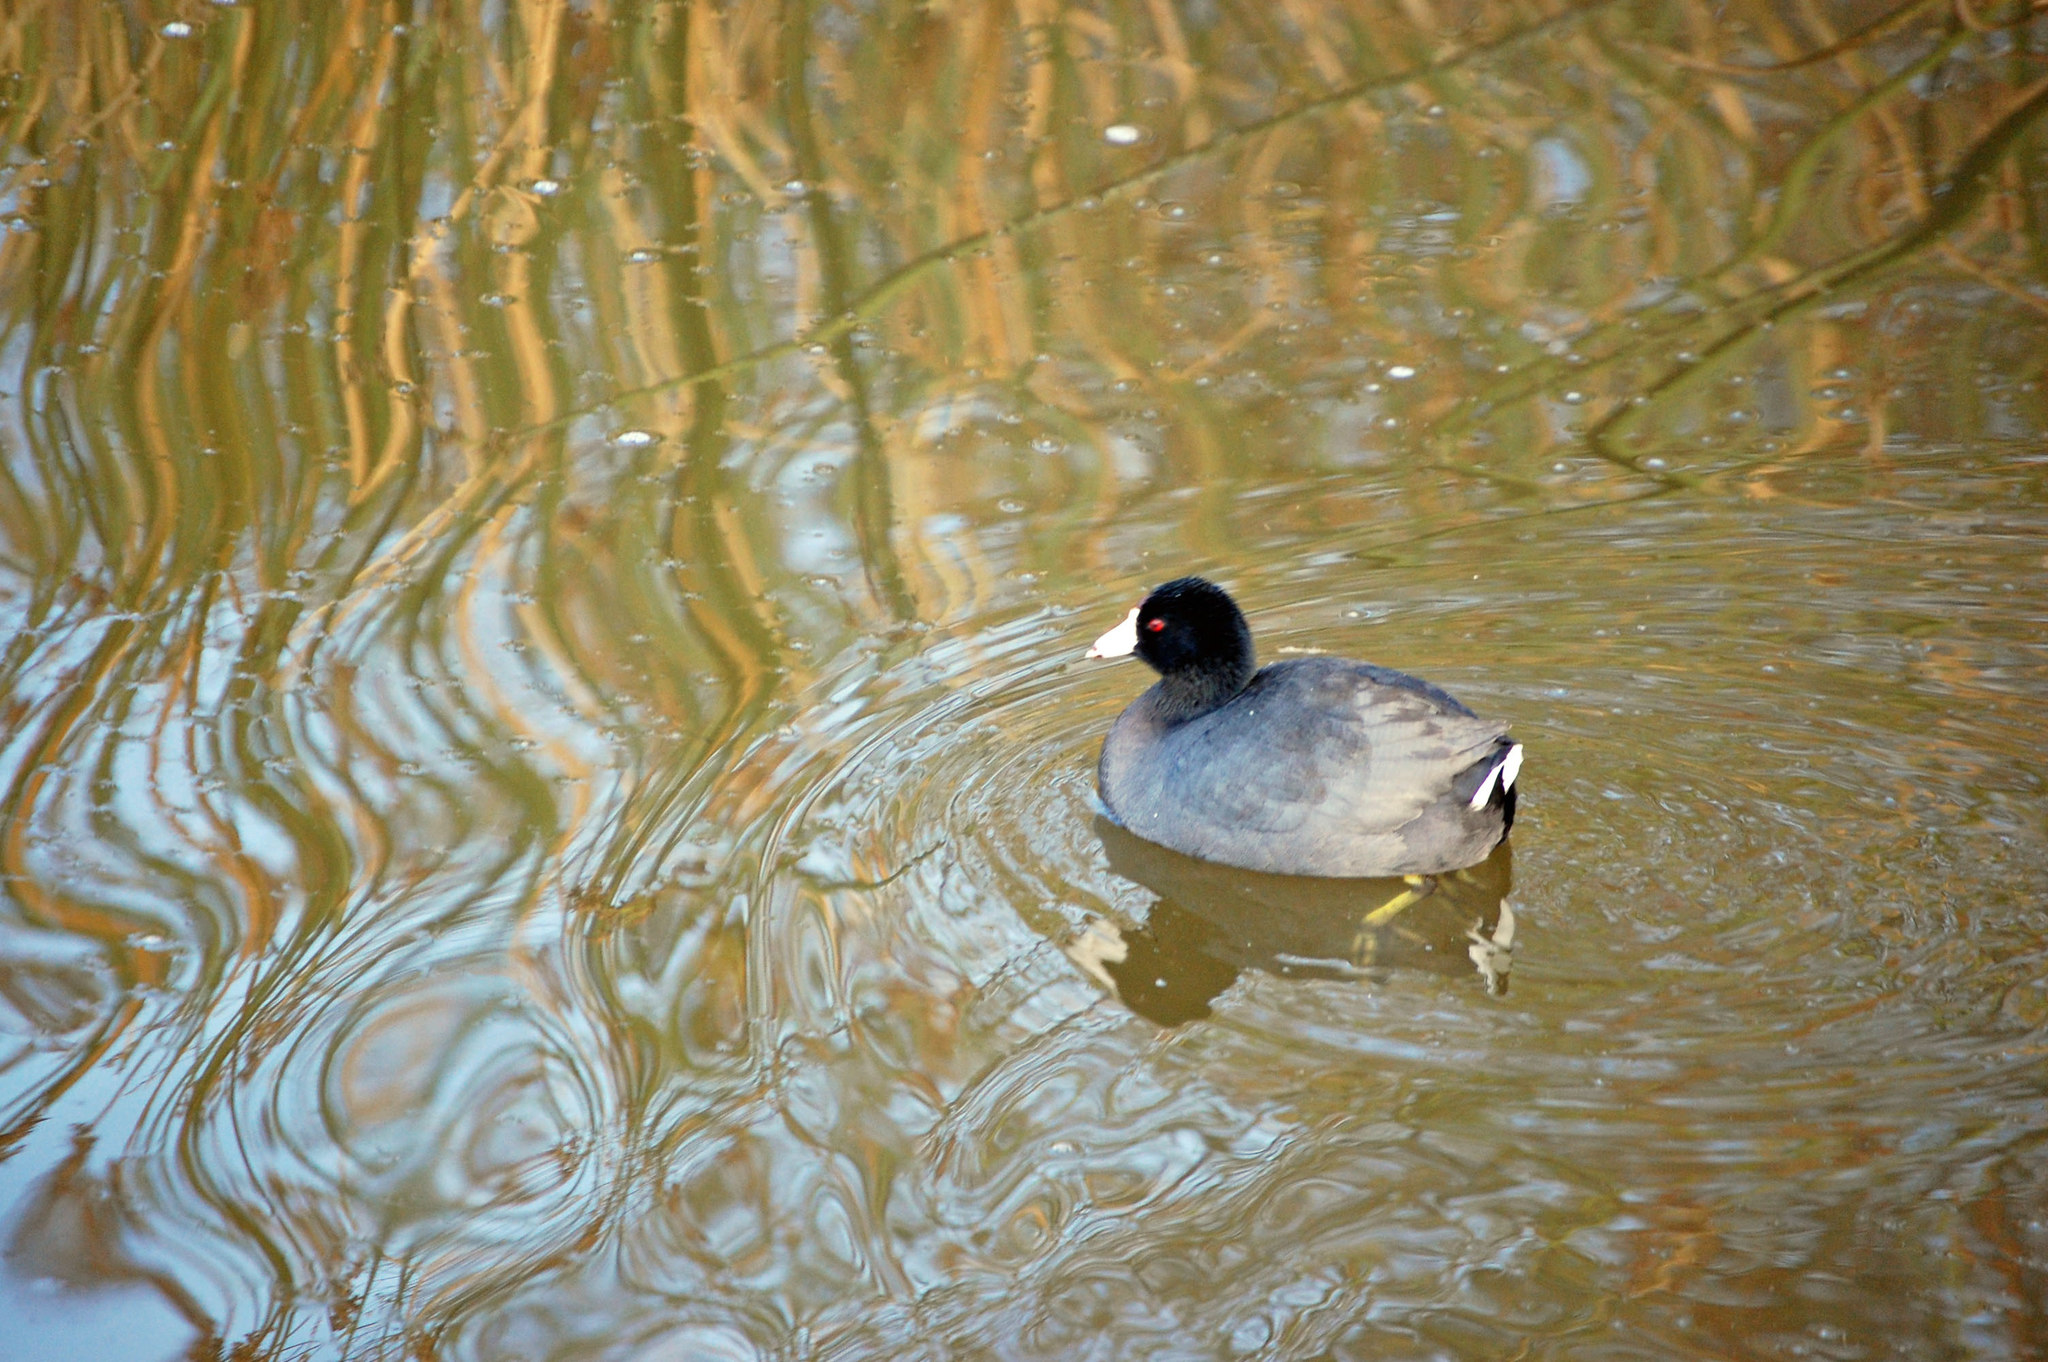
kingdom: Animalia
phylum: Chordata
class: Aves
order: Gruiformes
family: Rallidae
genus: Fulica
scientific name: Fulica americana
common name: American coot
